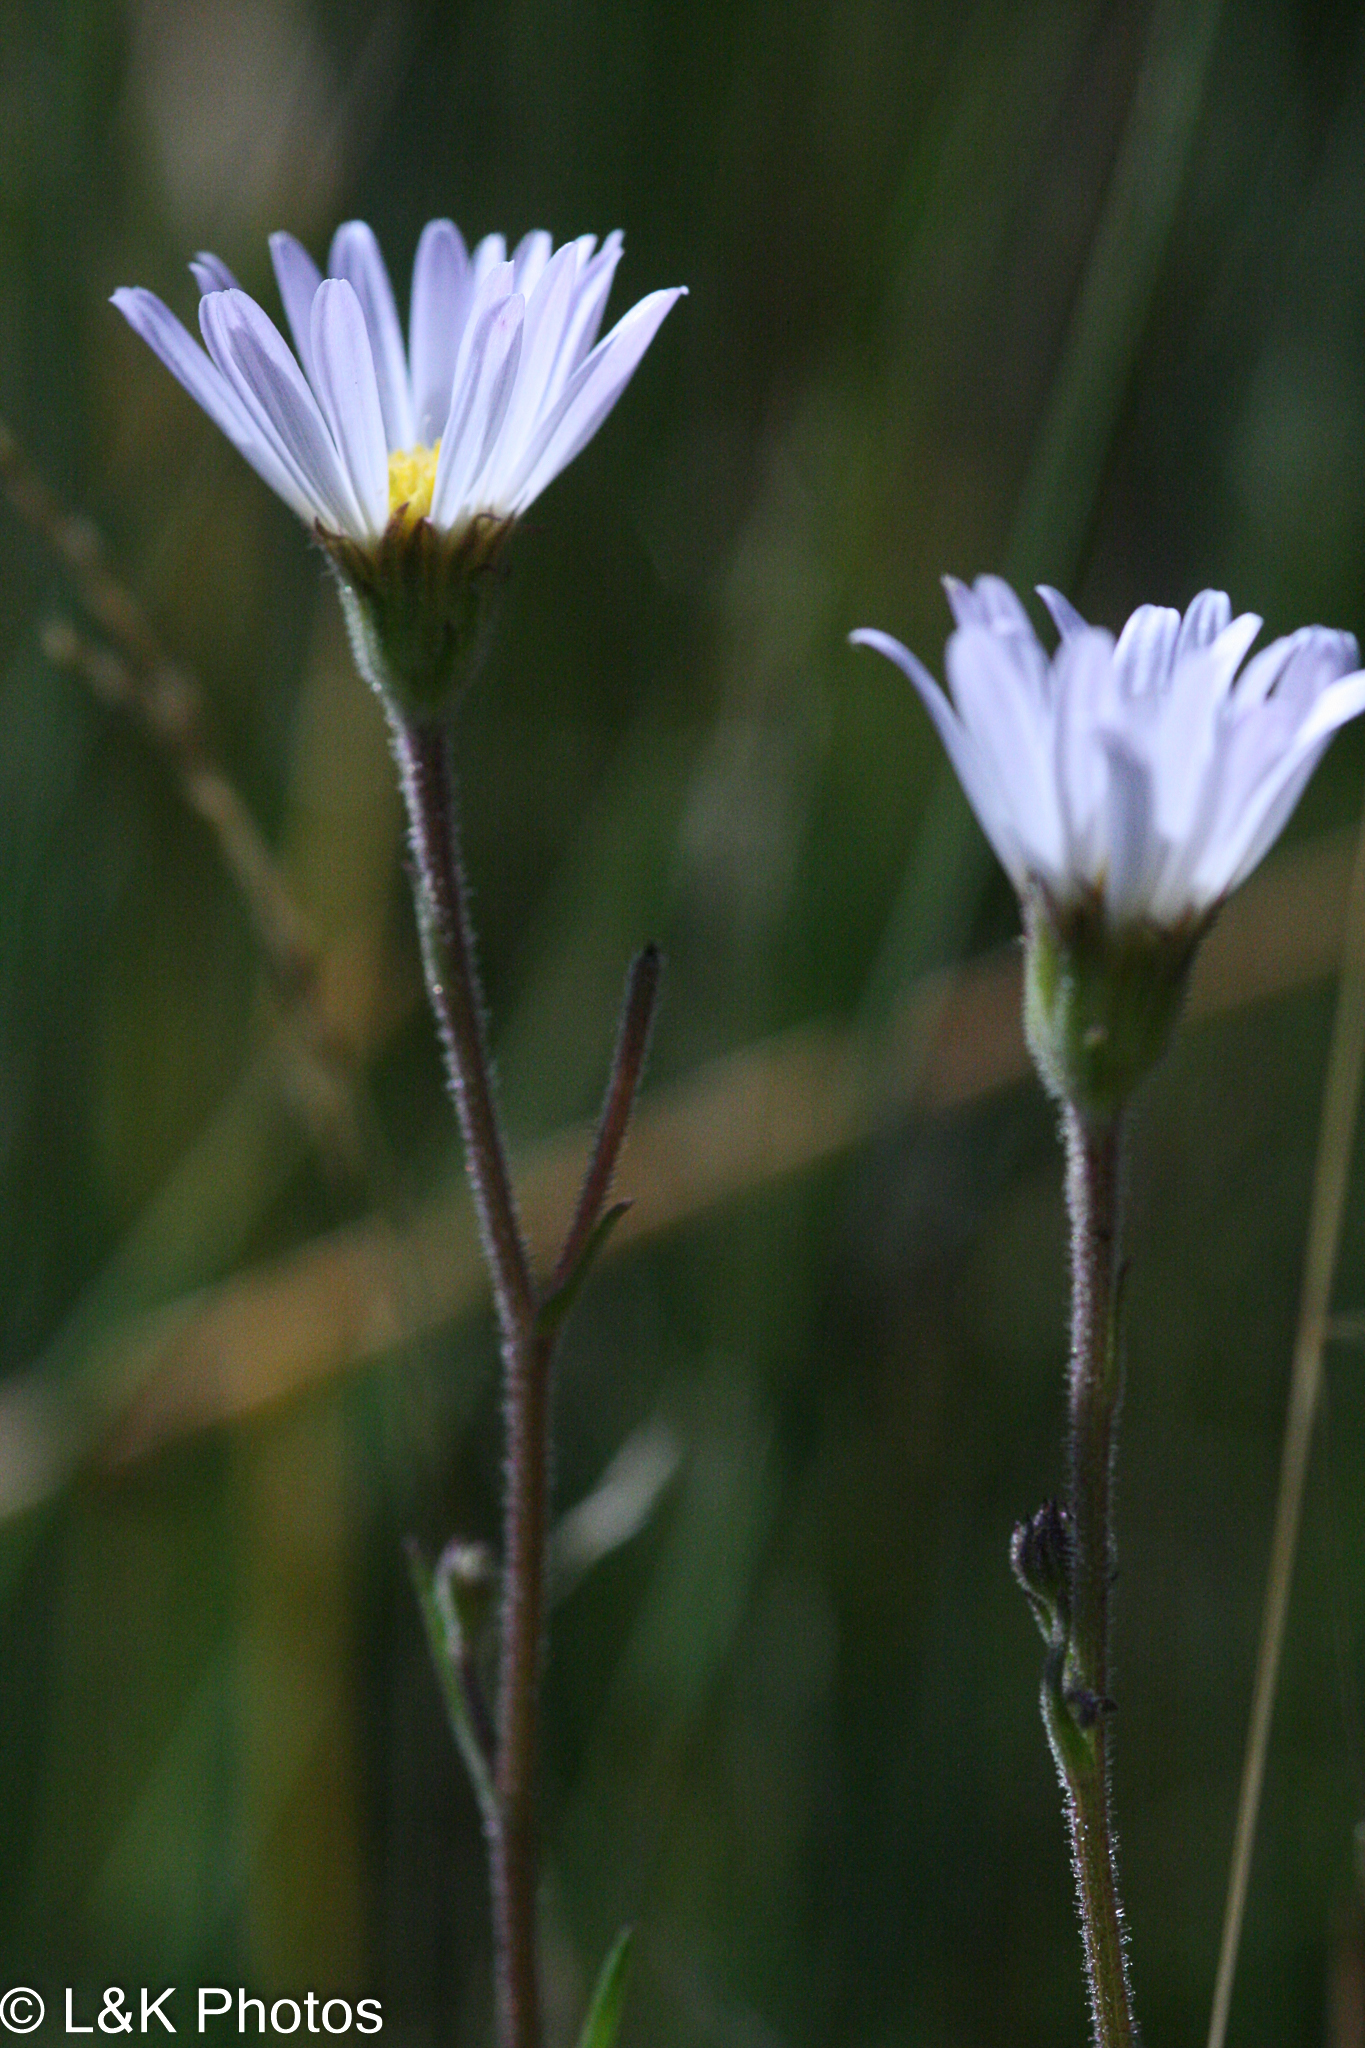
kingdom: Plantae
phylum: Tracheophyta
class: Magnoliopsida
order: Asterales
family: Asteraceae
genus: Almutaster
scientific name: Almutaster pauciflorus
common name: Alkaline aster
